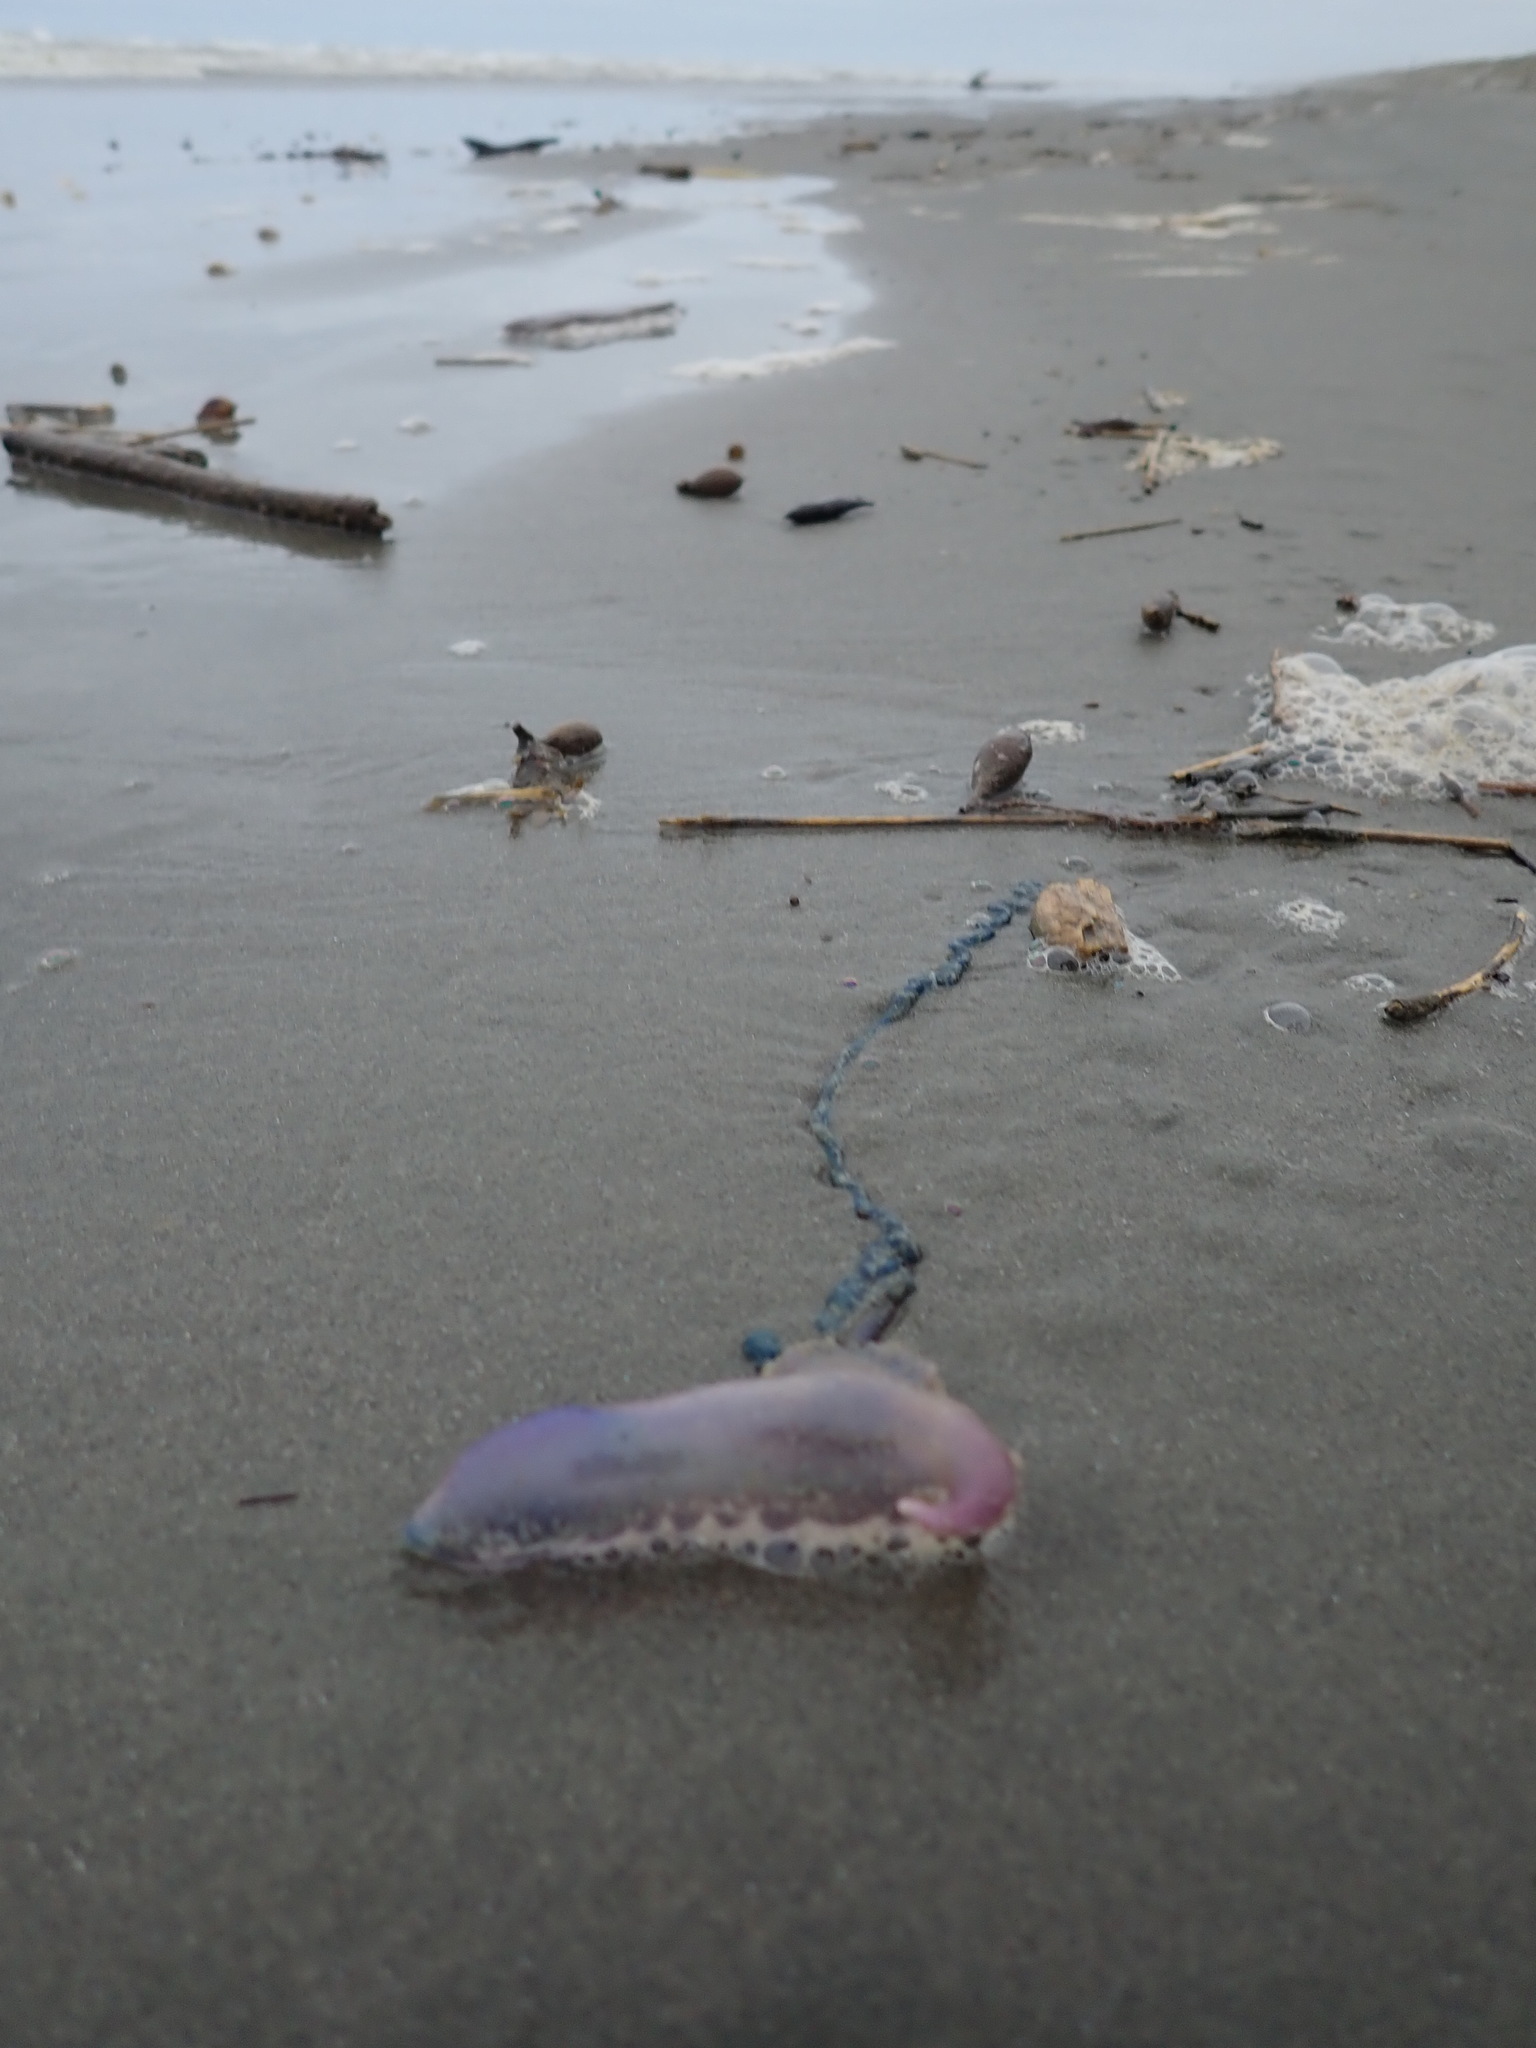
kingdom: Animalia
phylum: Cnidaria
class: Hydrozoa
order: Siphonophorae
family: Physaliidae
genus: Physalia
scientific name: Physalia physalis
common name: Portuguese man-of-war
